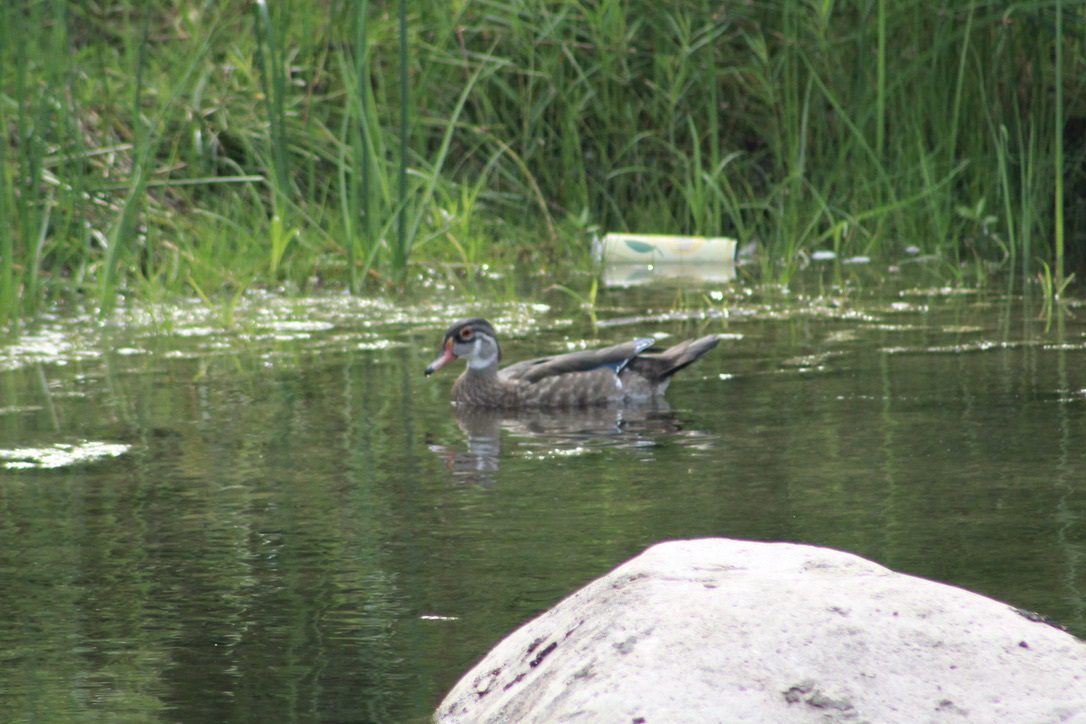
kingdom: Animalia
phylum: Chordata
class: Aves
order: Anseriformes
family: Anatidae
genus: Aix
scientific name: Aix sponsa
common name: Wood duck
